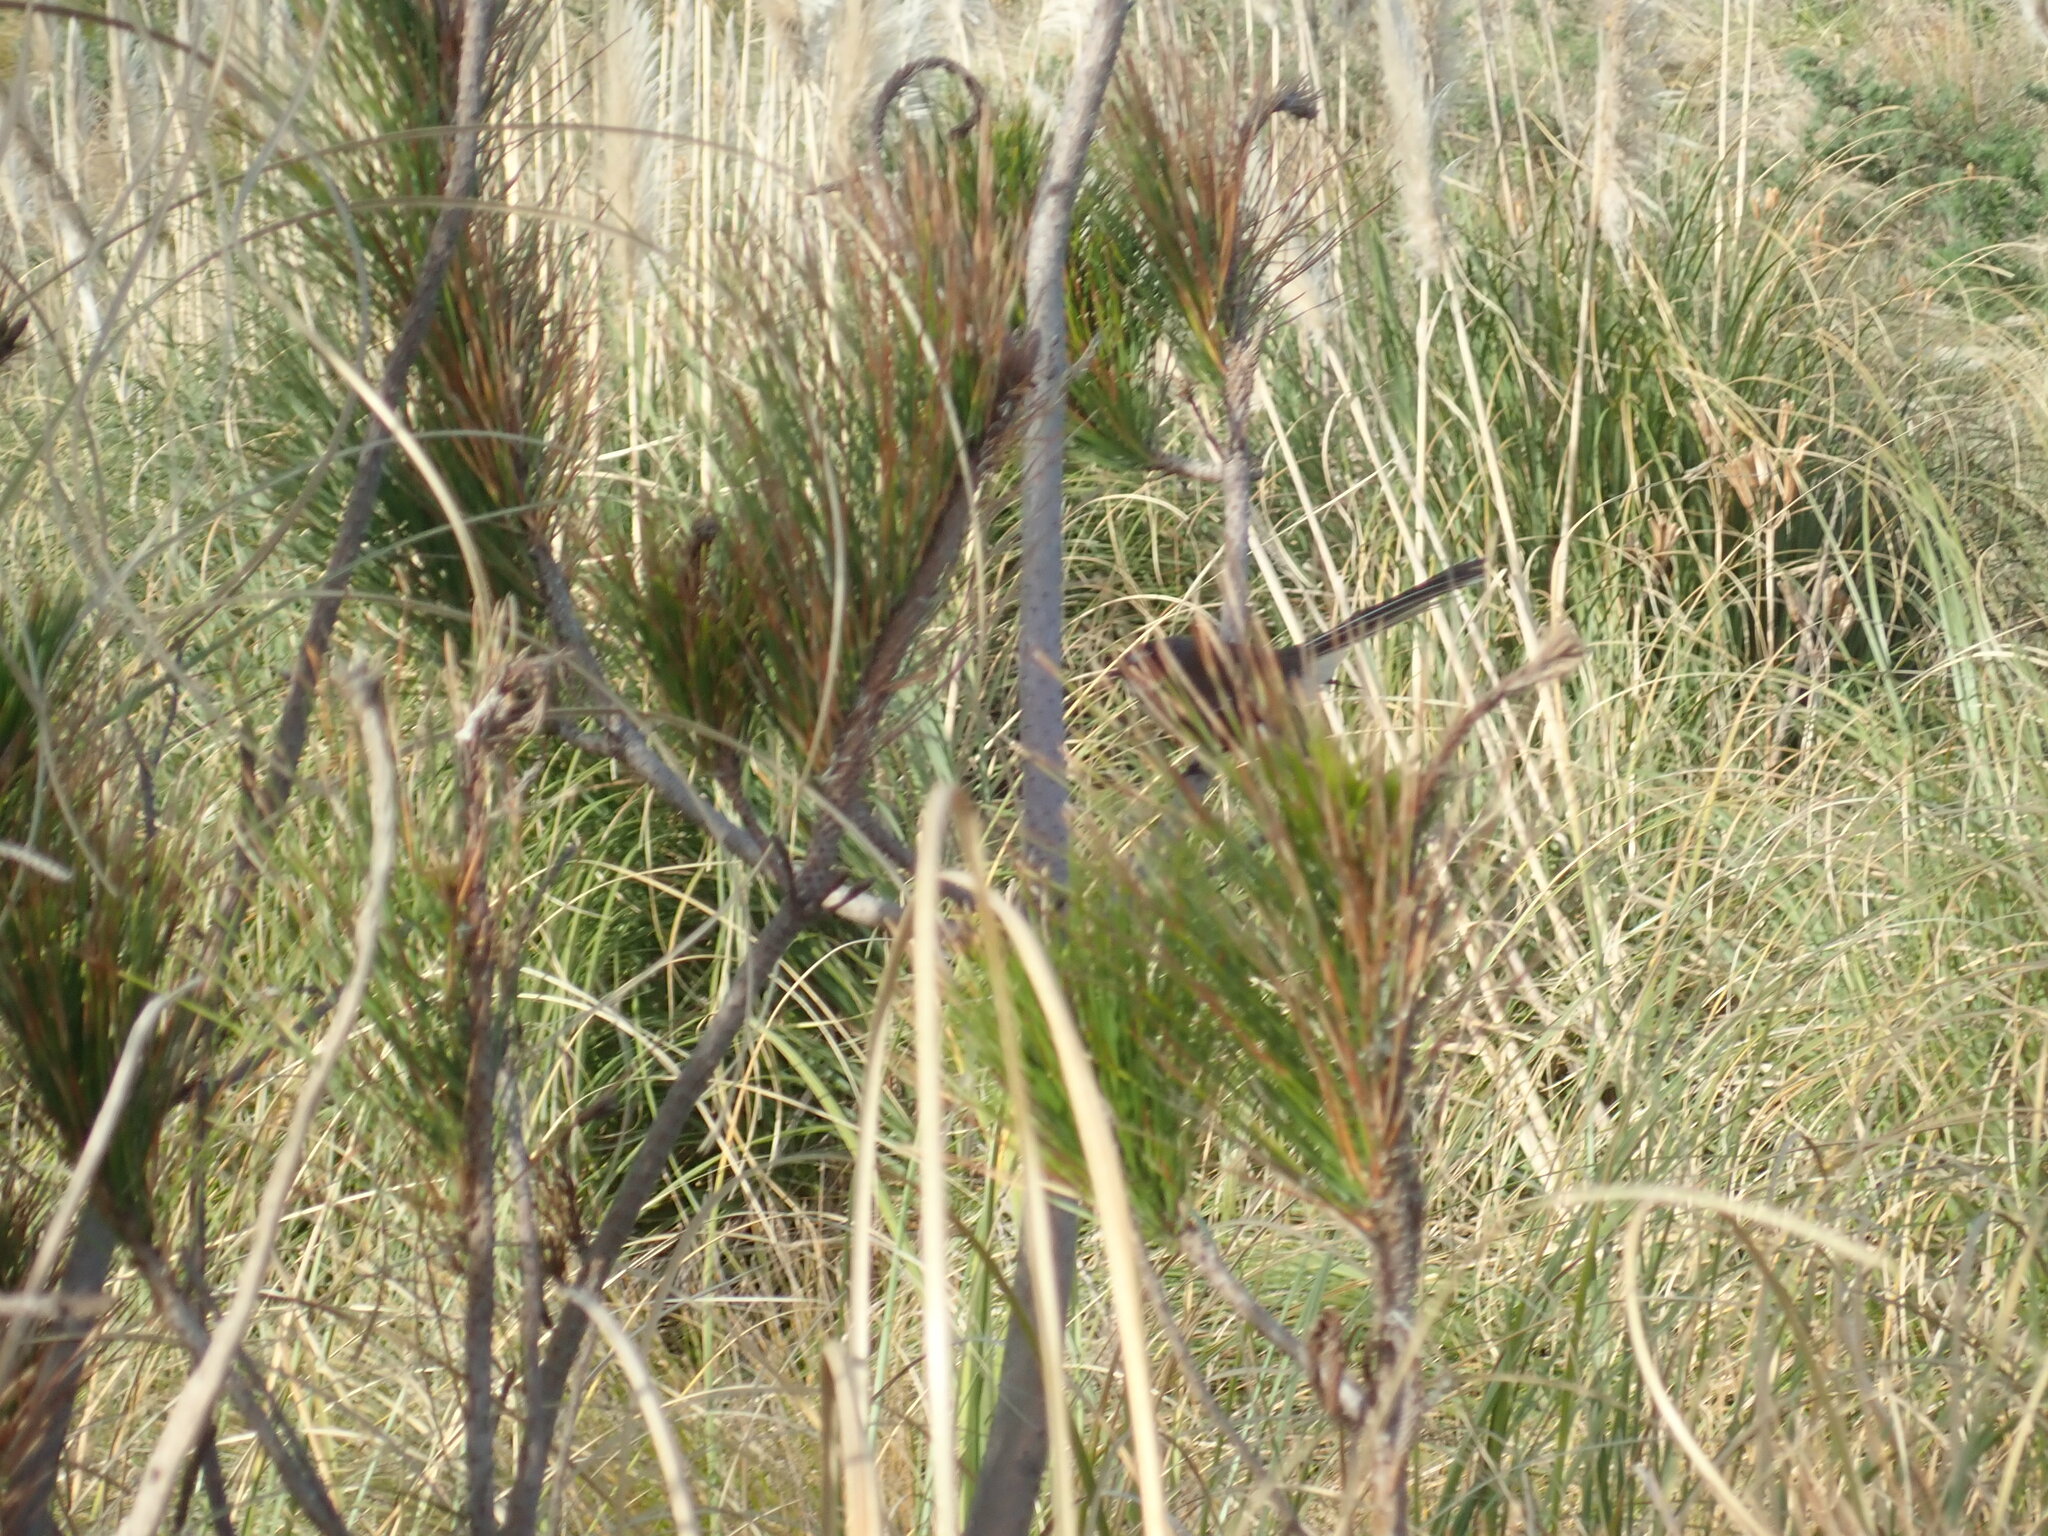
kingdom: Animalia
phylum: Chordata
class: Aves
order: Passeriformes
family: Rhipiduridae
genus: Rhipidura
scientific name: Rhipidura fuliginosa
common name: New zealand fantail
